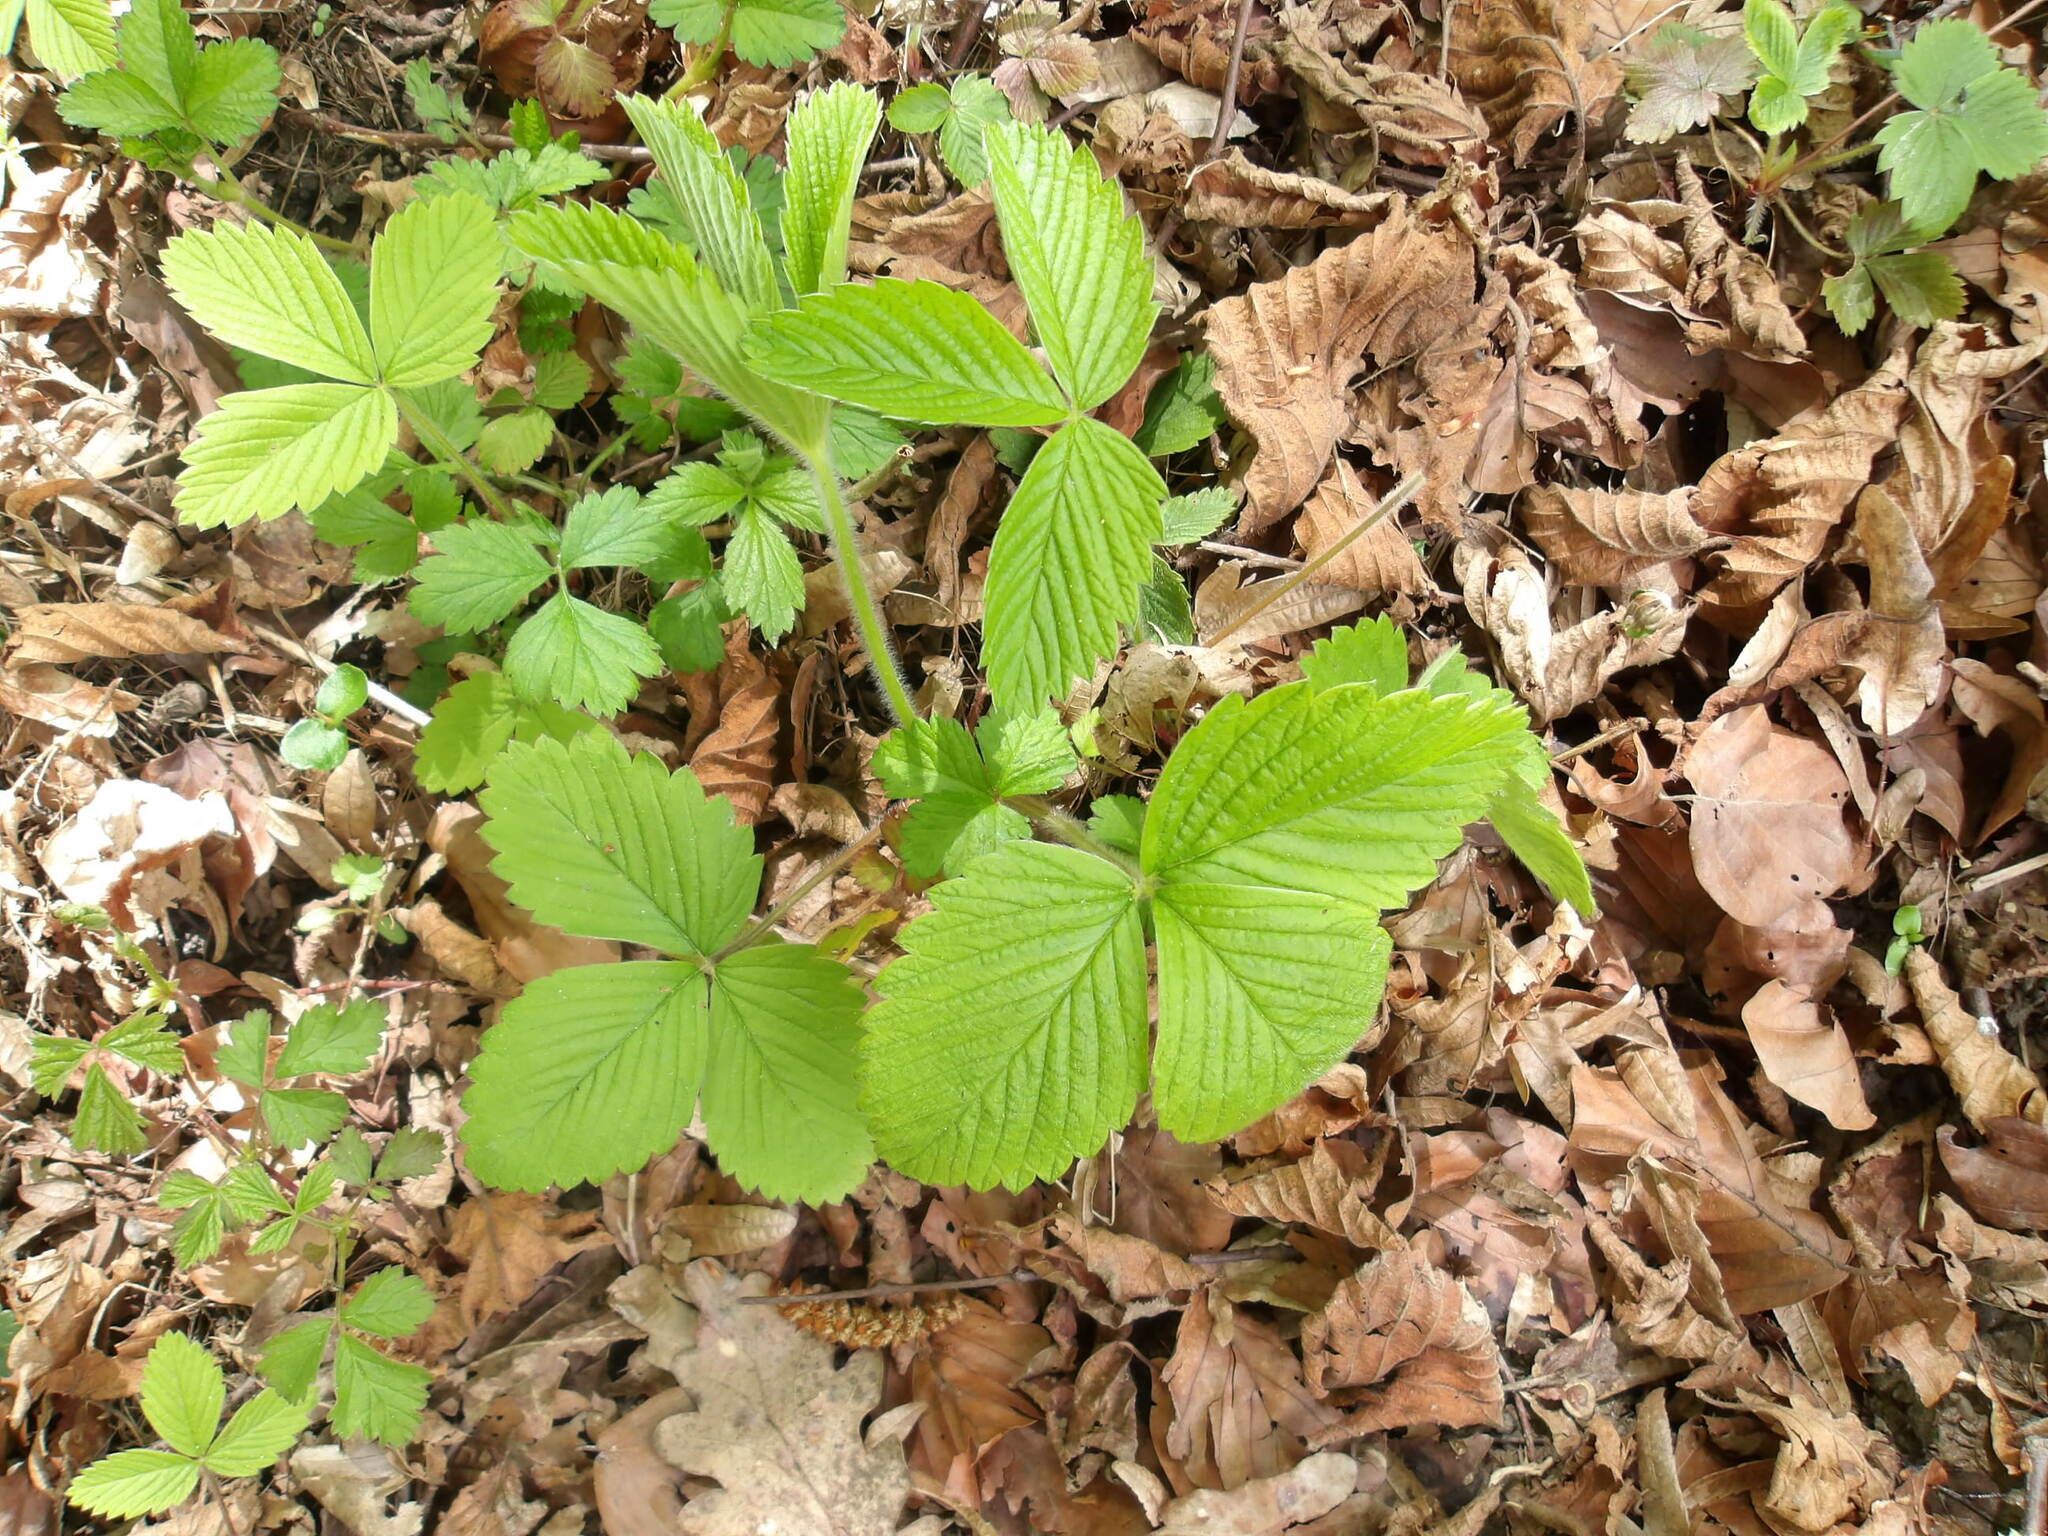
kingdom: Plantae
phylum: Tracheophyta
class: Magnoliopsida
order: Rosales
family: Rosaceae
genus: Fragaria
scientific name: Fragaria vesca
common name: Wild strawberry
